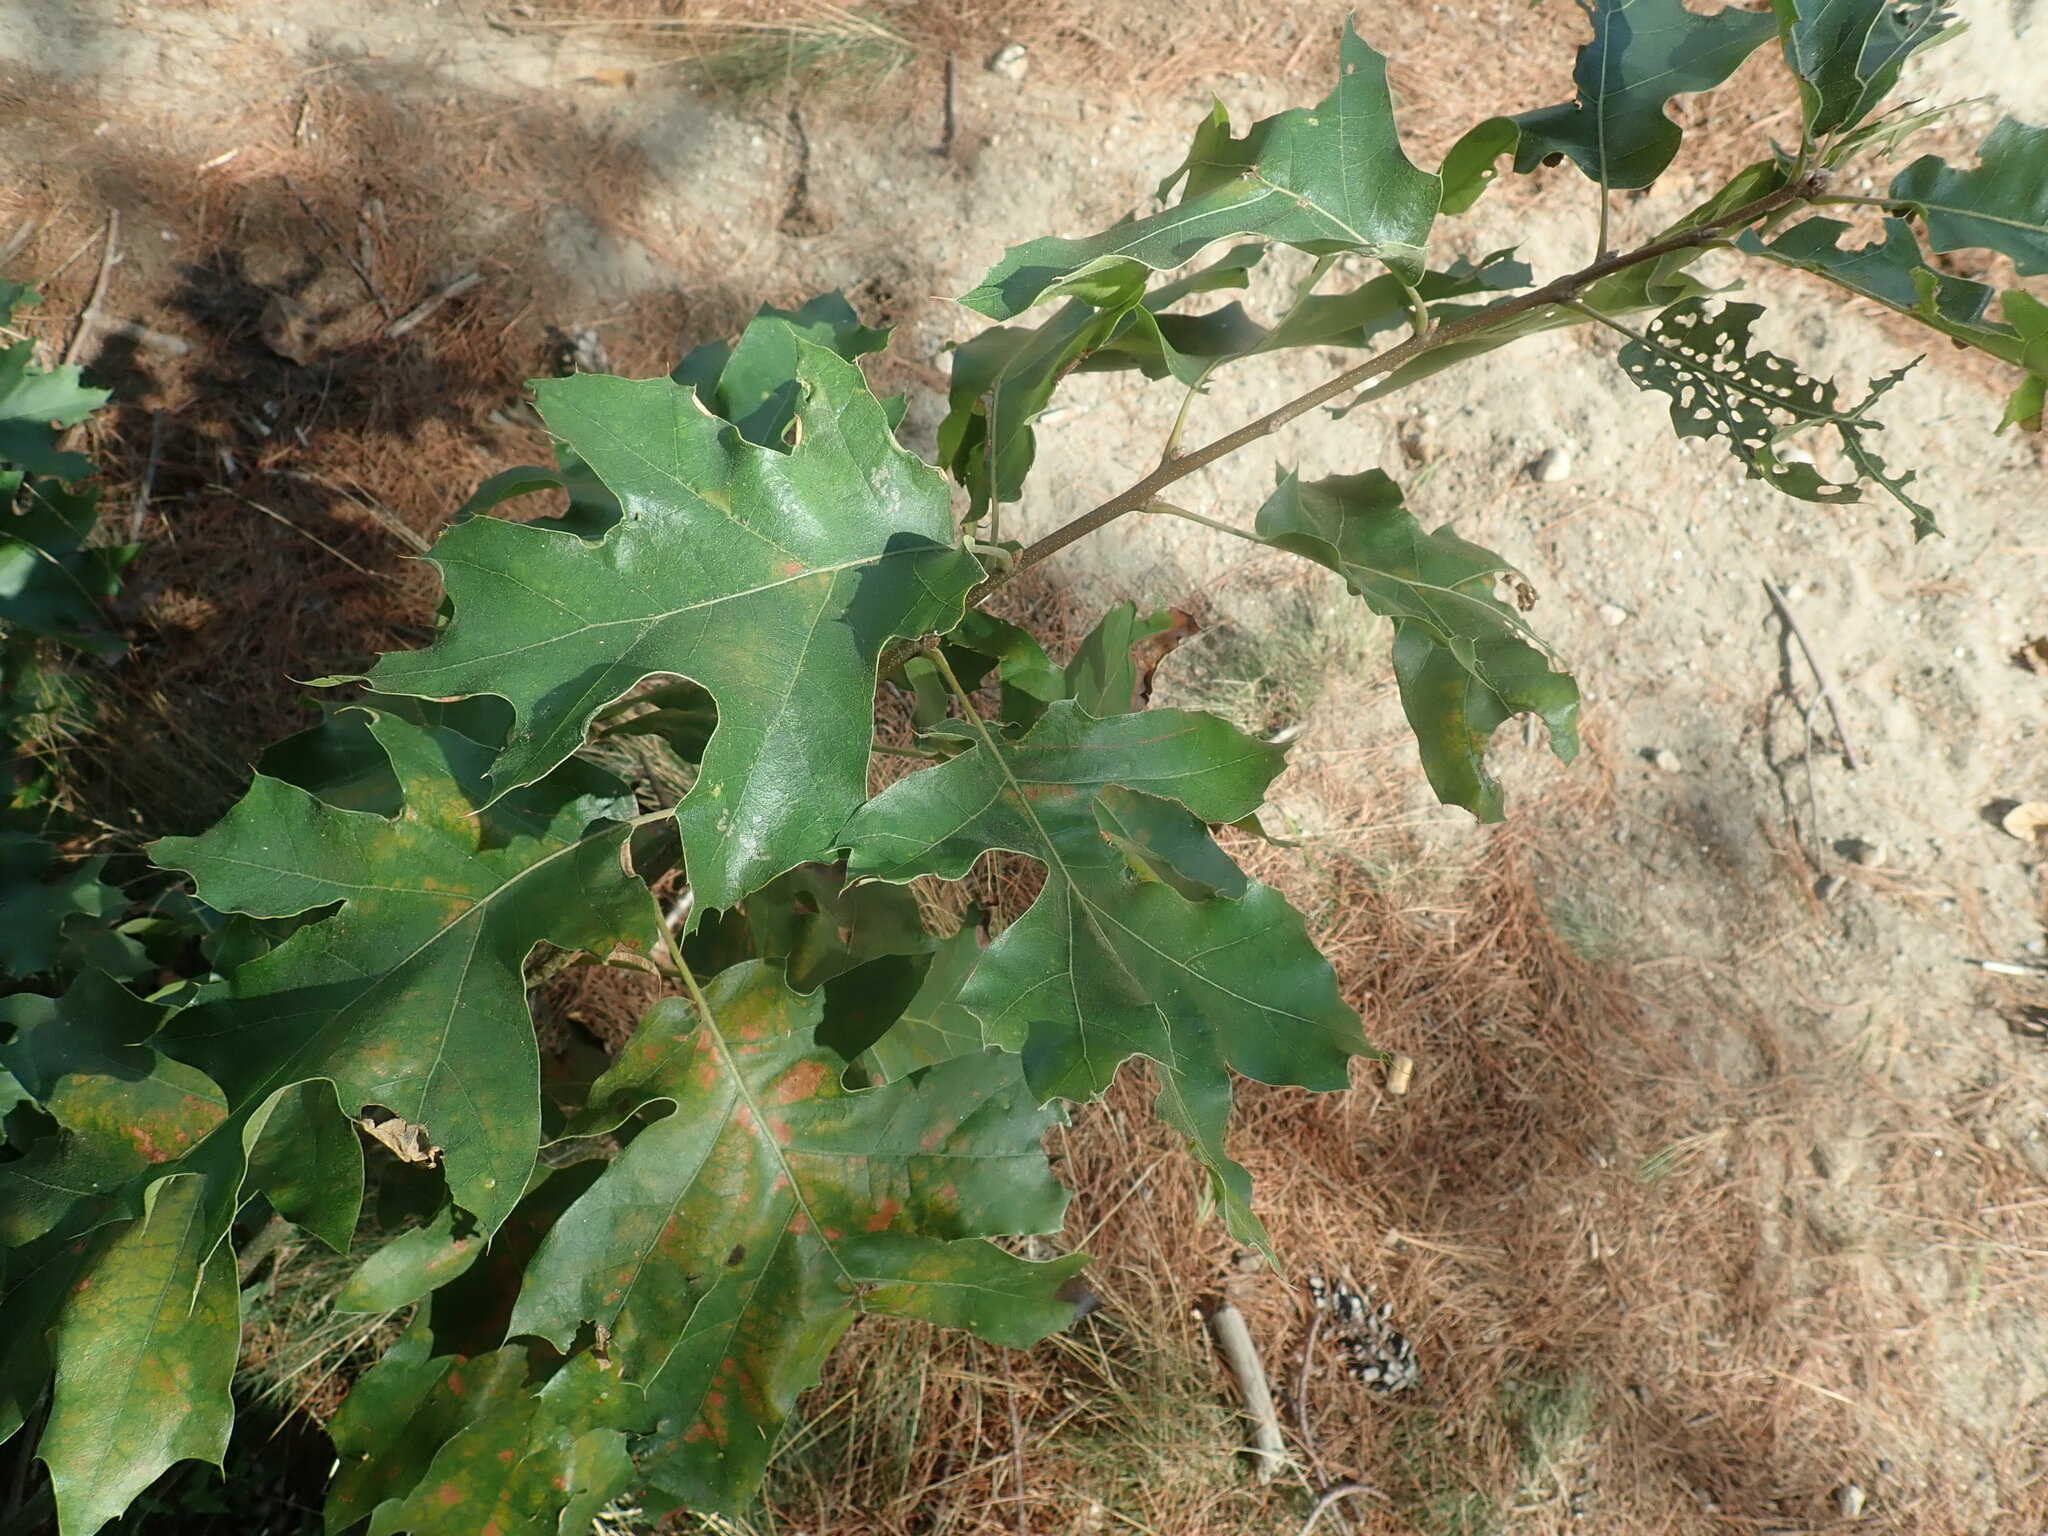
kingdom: Plantae
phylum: Tracheophyta
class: Magnoliopsida
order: Fagales
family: Fagaceae
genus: Quercus
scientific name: Quercus velutina
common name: Black oak
